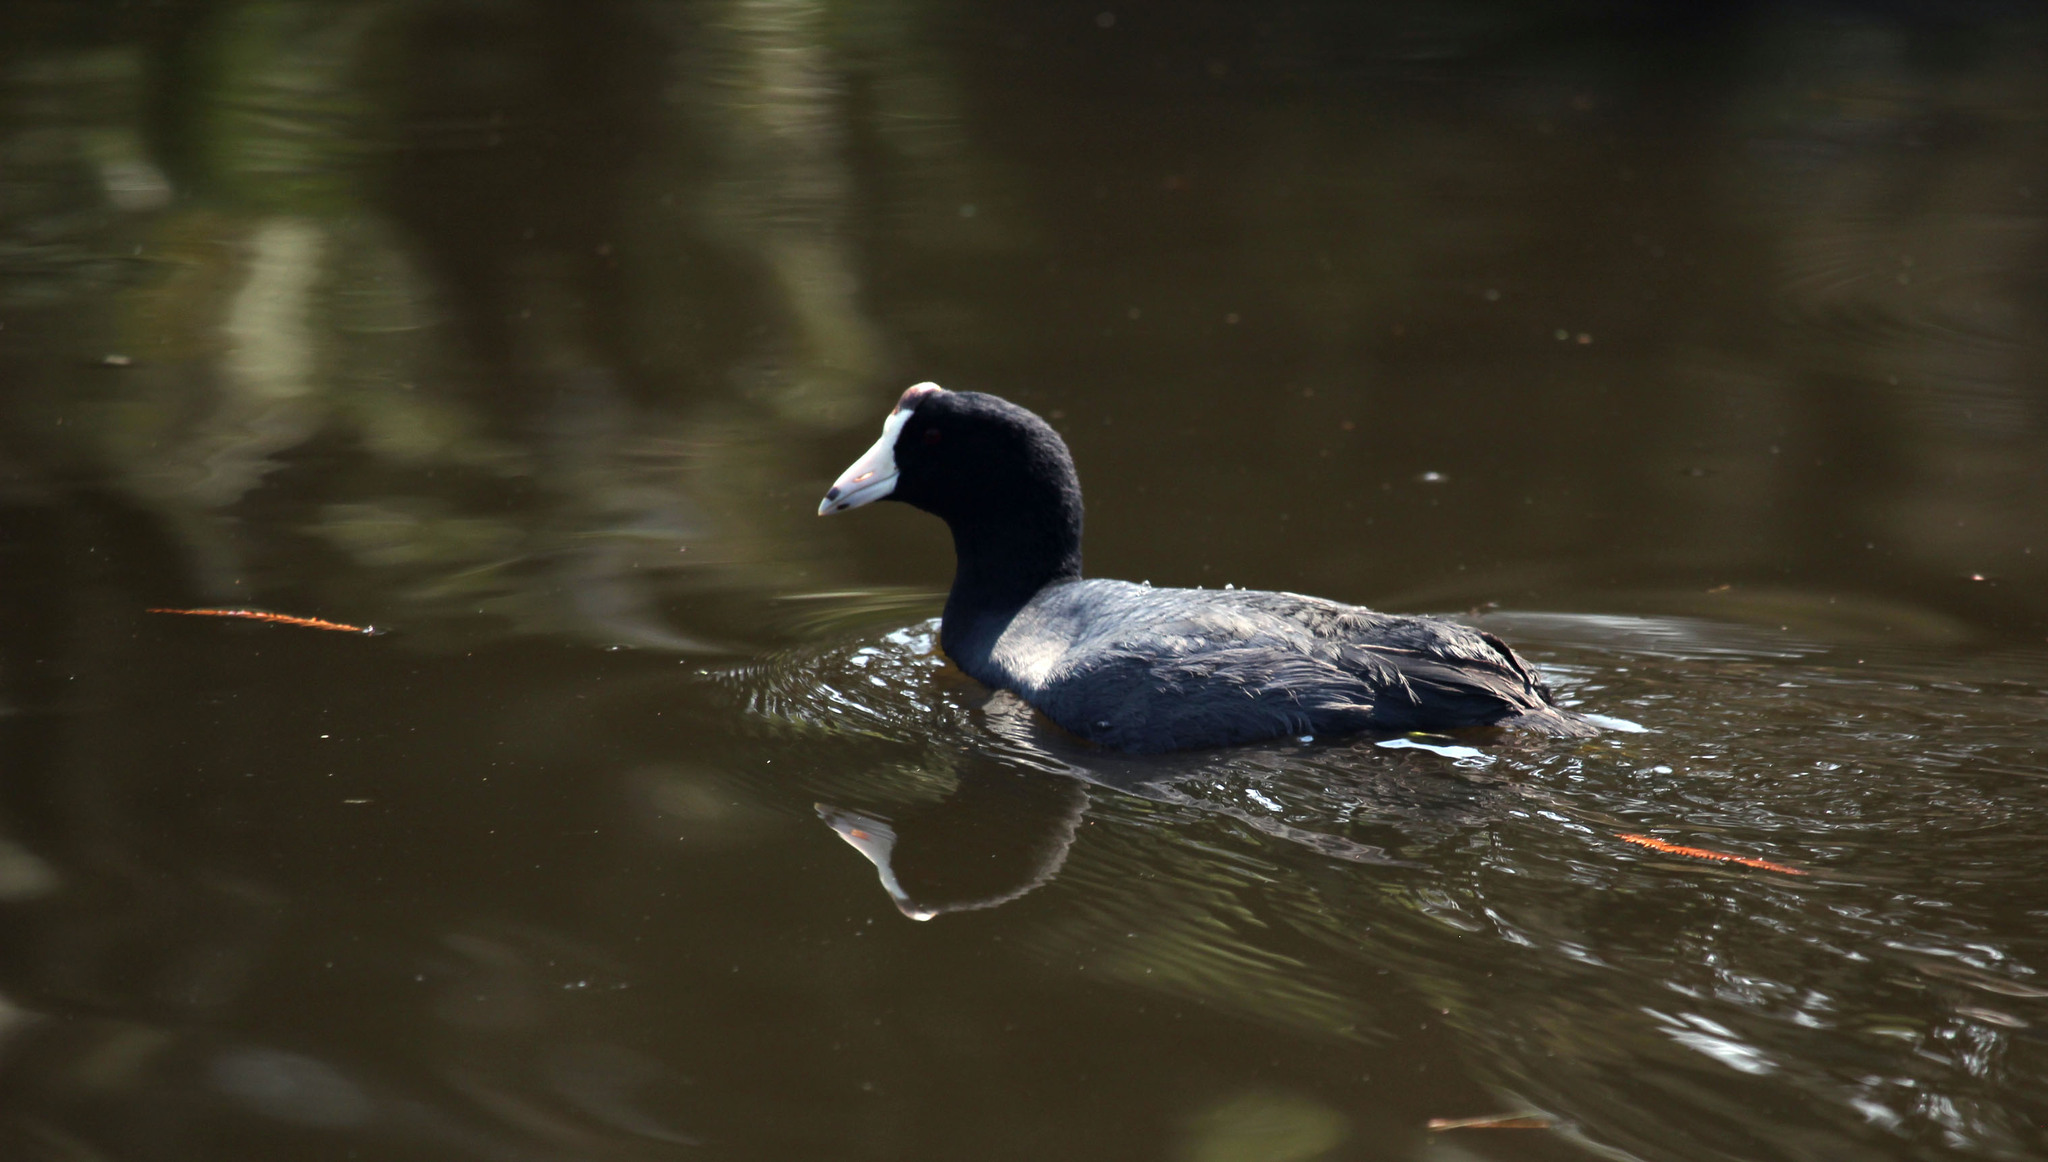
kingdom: Animalia
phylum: Chordata
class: Aves
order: Gruiformes
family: Rallidae
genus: Fulica
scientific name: Fulica americana
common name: American coot
